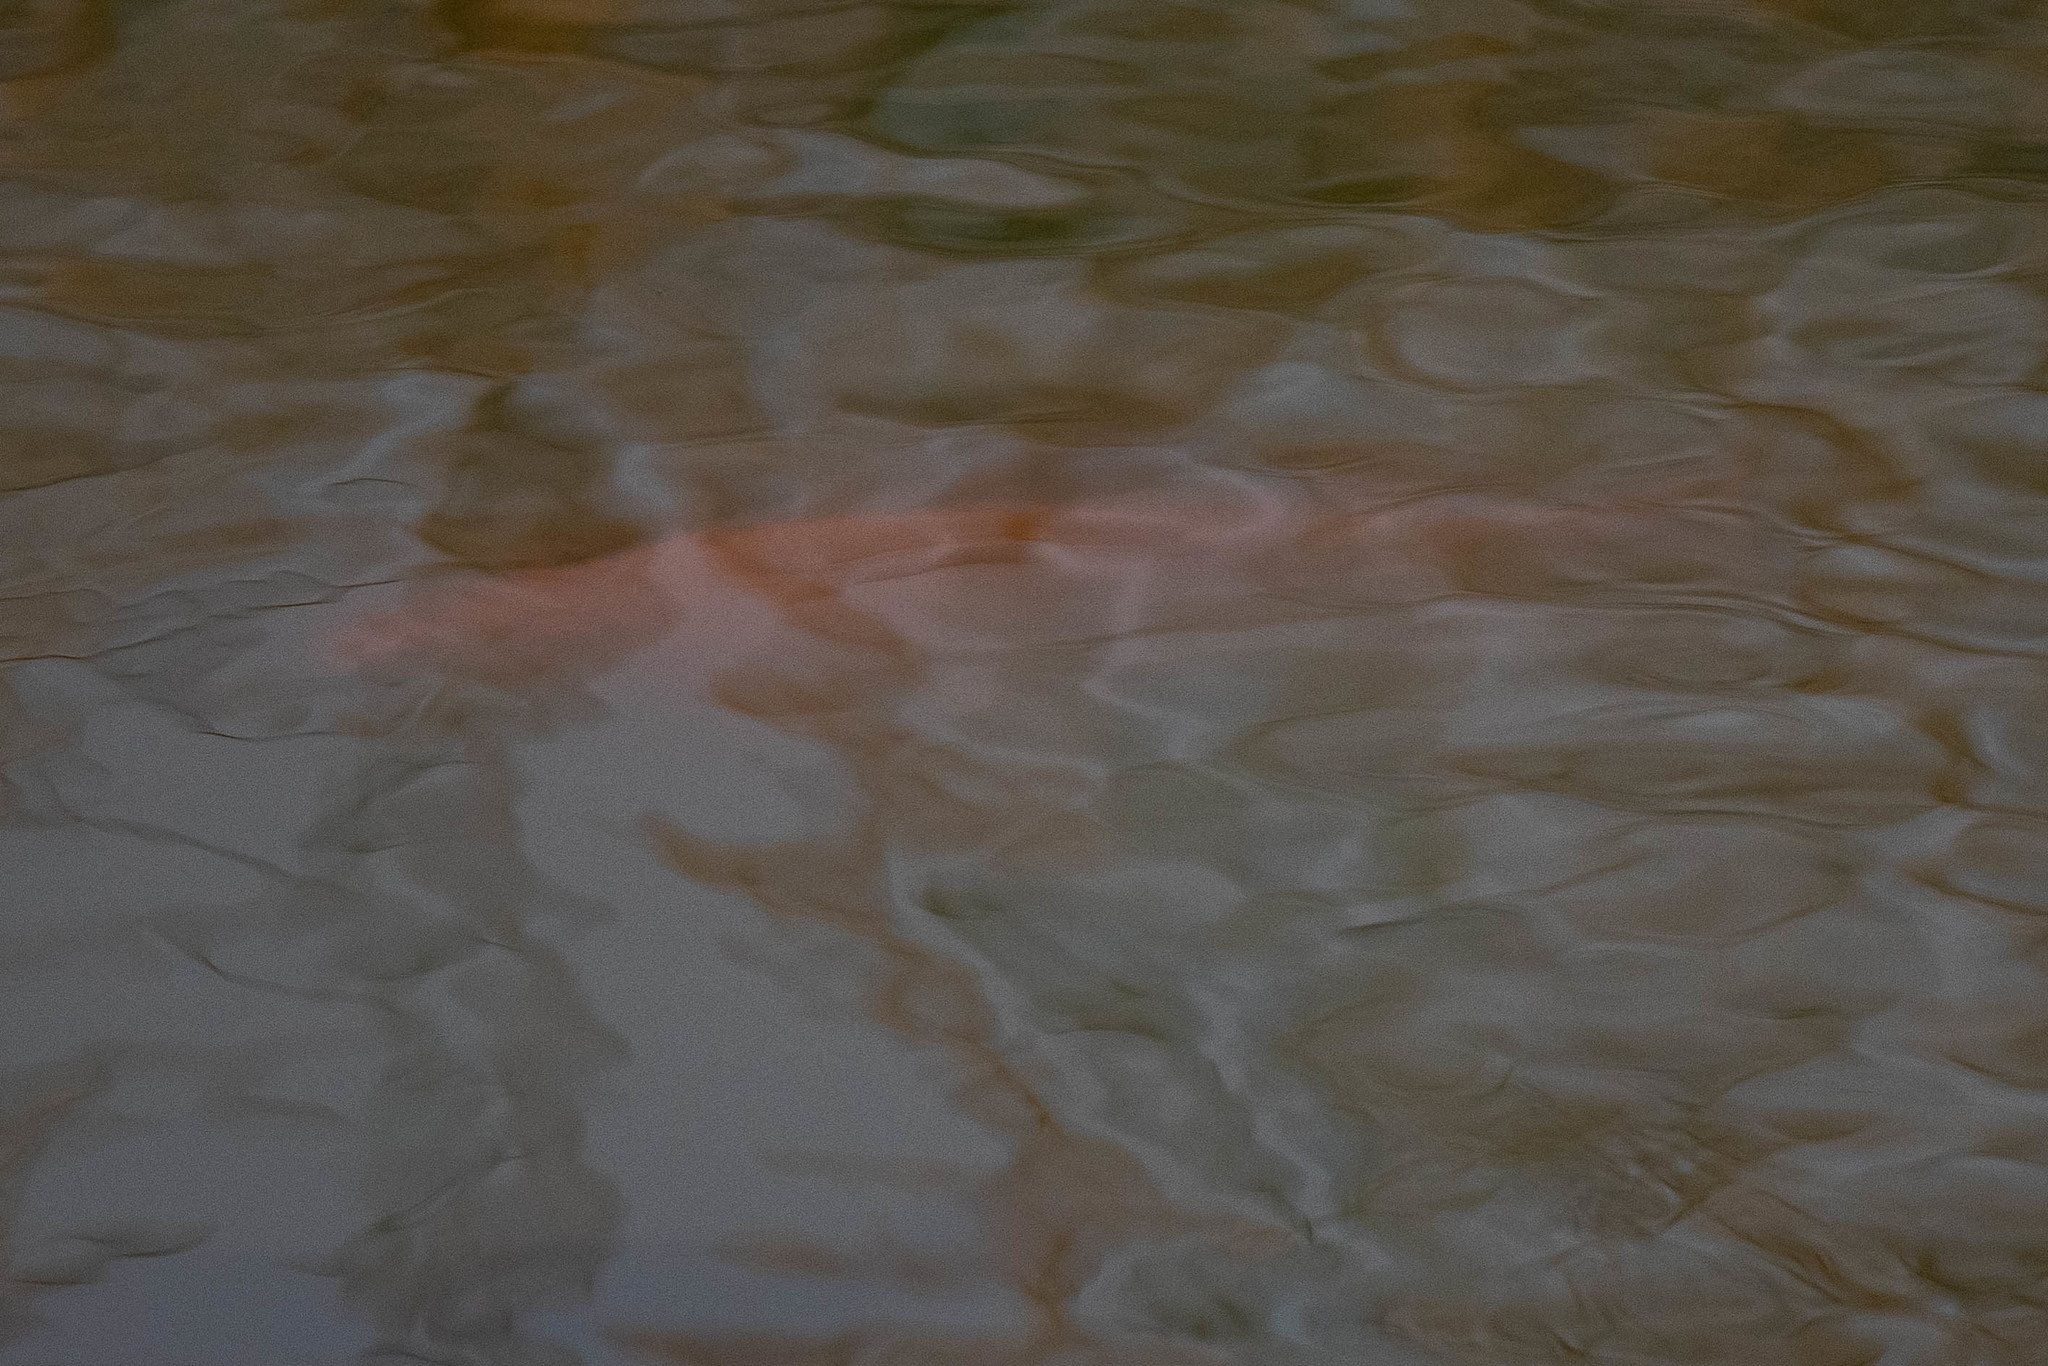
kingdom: Animalia
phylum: Chordata
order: Cypriniformes
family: Cyprinidae
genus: Carassius
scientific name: Carassius auratus
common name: Goldfish
